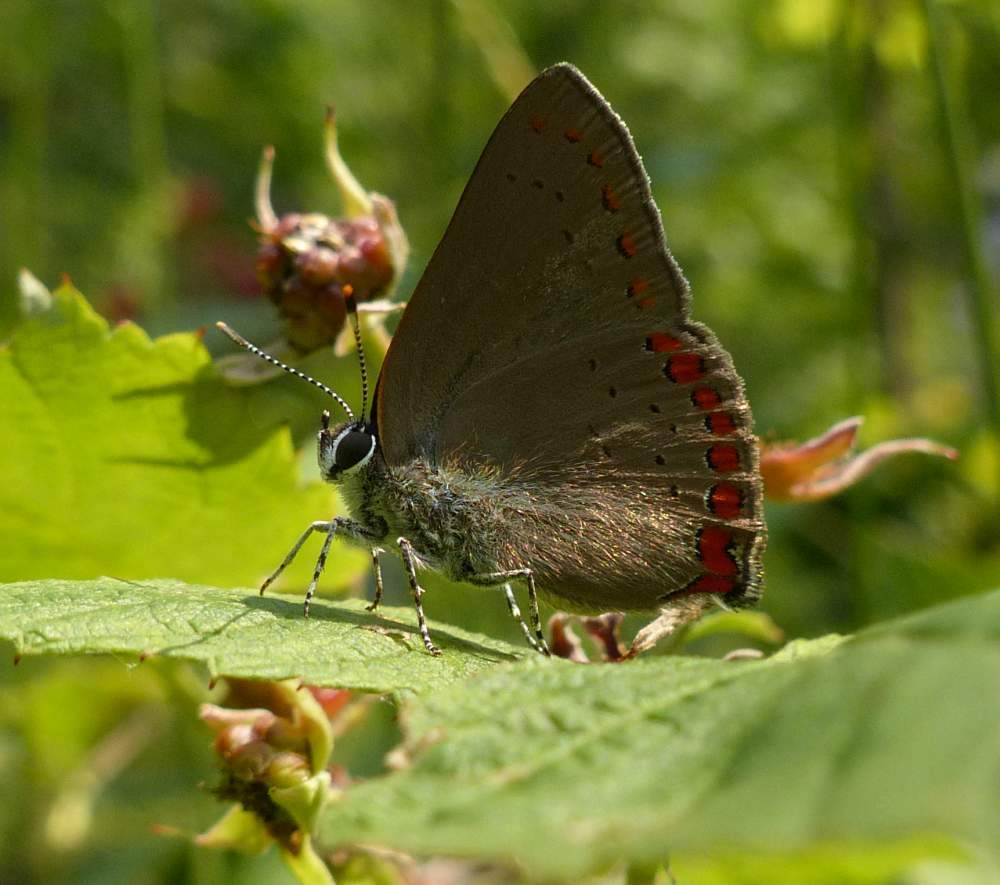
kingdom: Animalia
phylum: Arthropoda
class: Insecta
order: Lepidoptera
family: Lycaenidae
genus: Harkenclenus
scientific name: Harkenclenus titus
